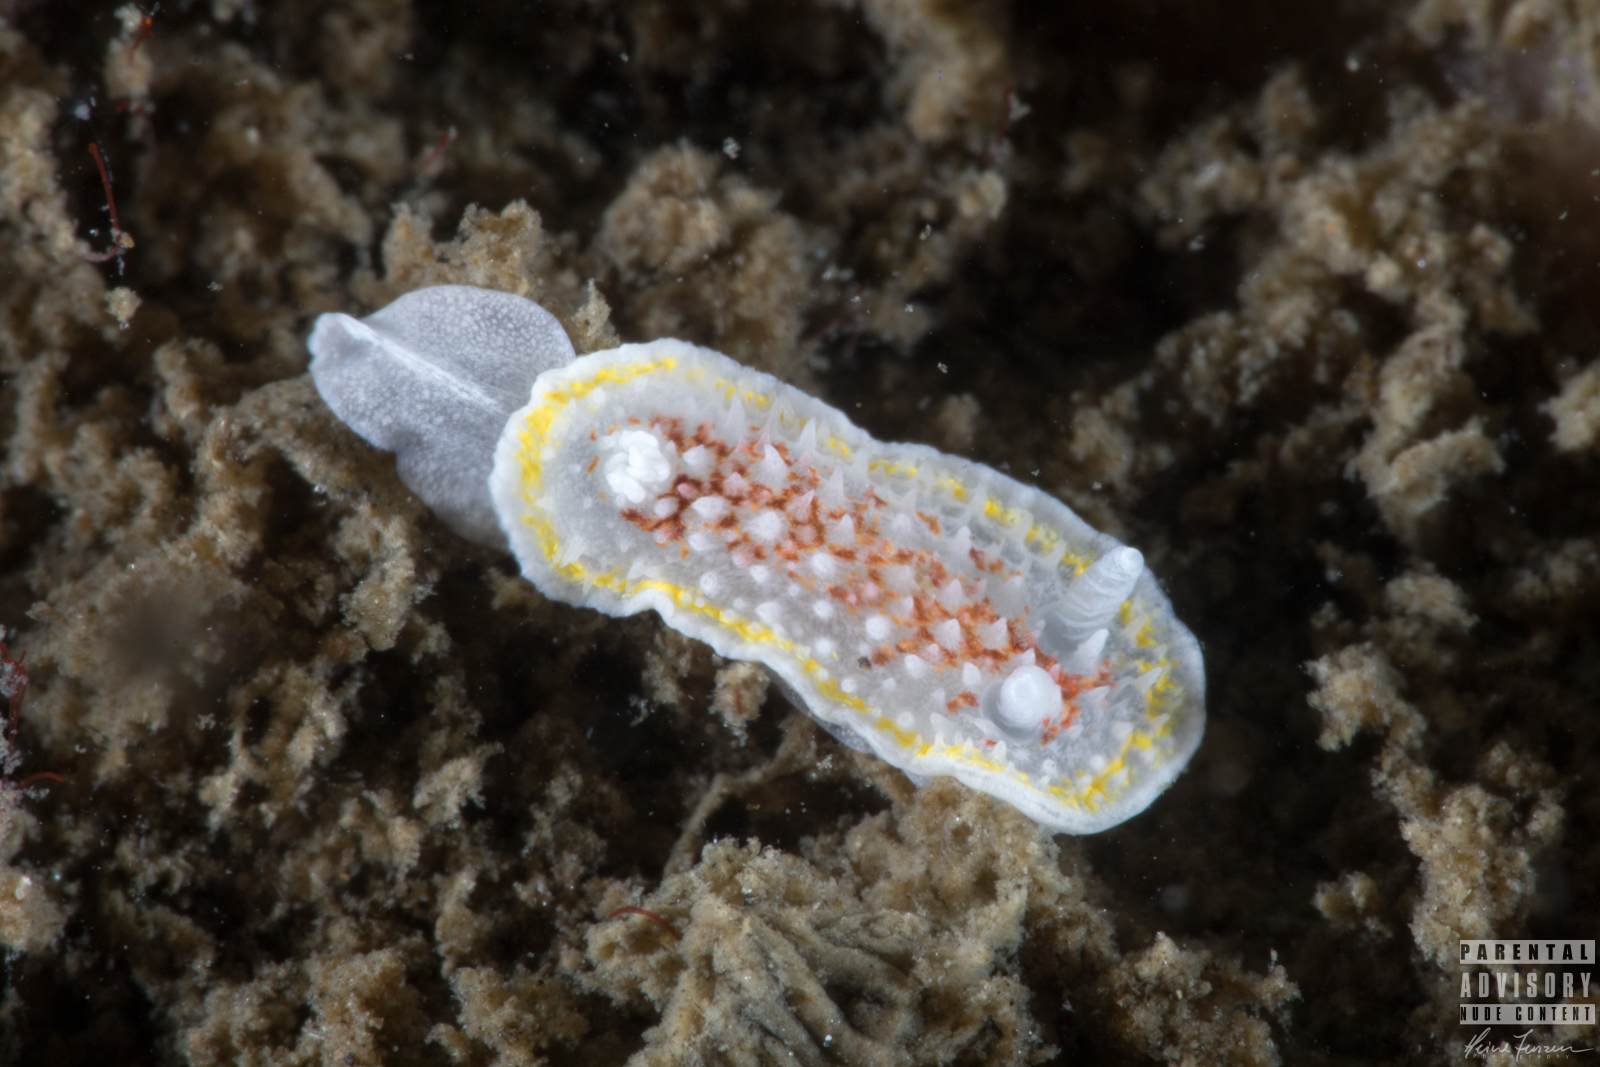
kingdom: Animalia
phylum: Mollusca
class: Gastropoda
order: Nudibranchia
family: Calycidorididae
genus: Diaphorodoris
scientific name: Diaphorodoris luteocincta
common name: Fried egg nudibranch
